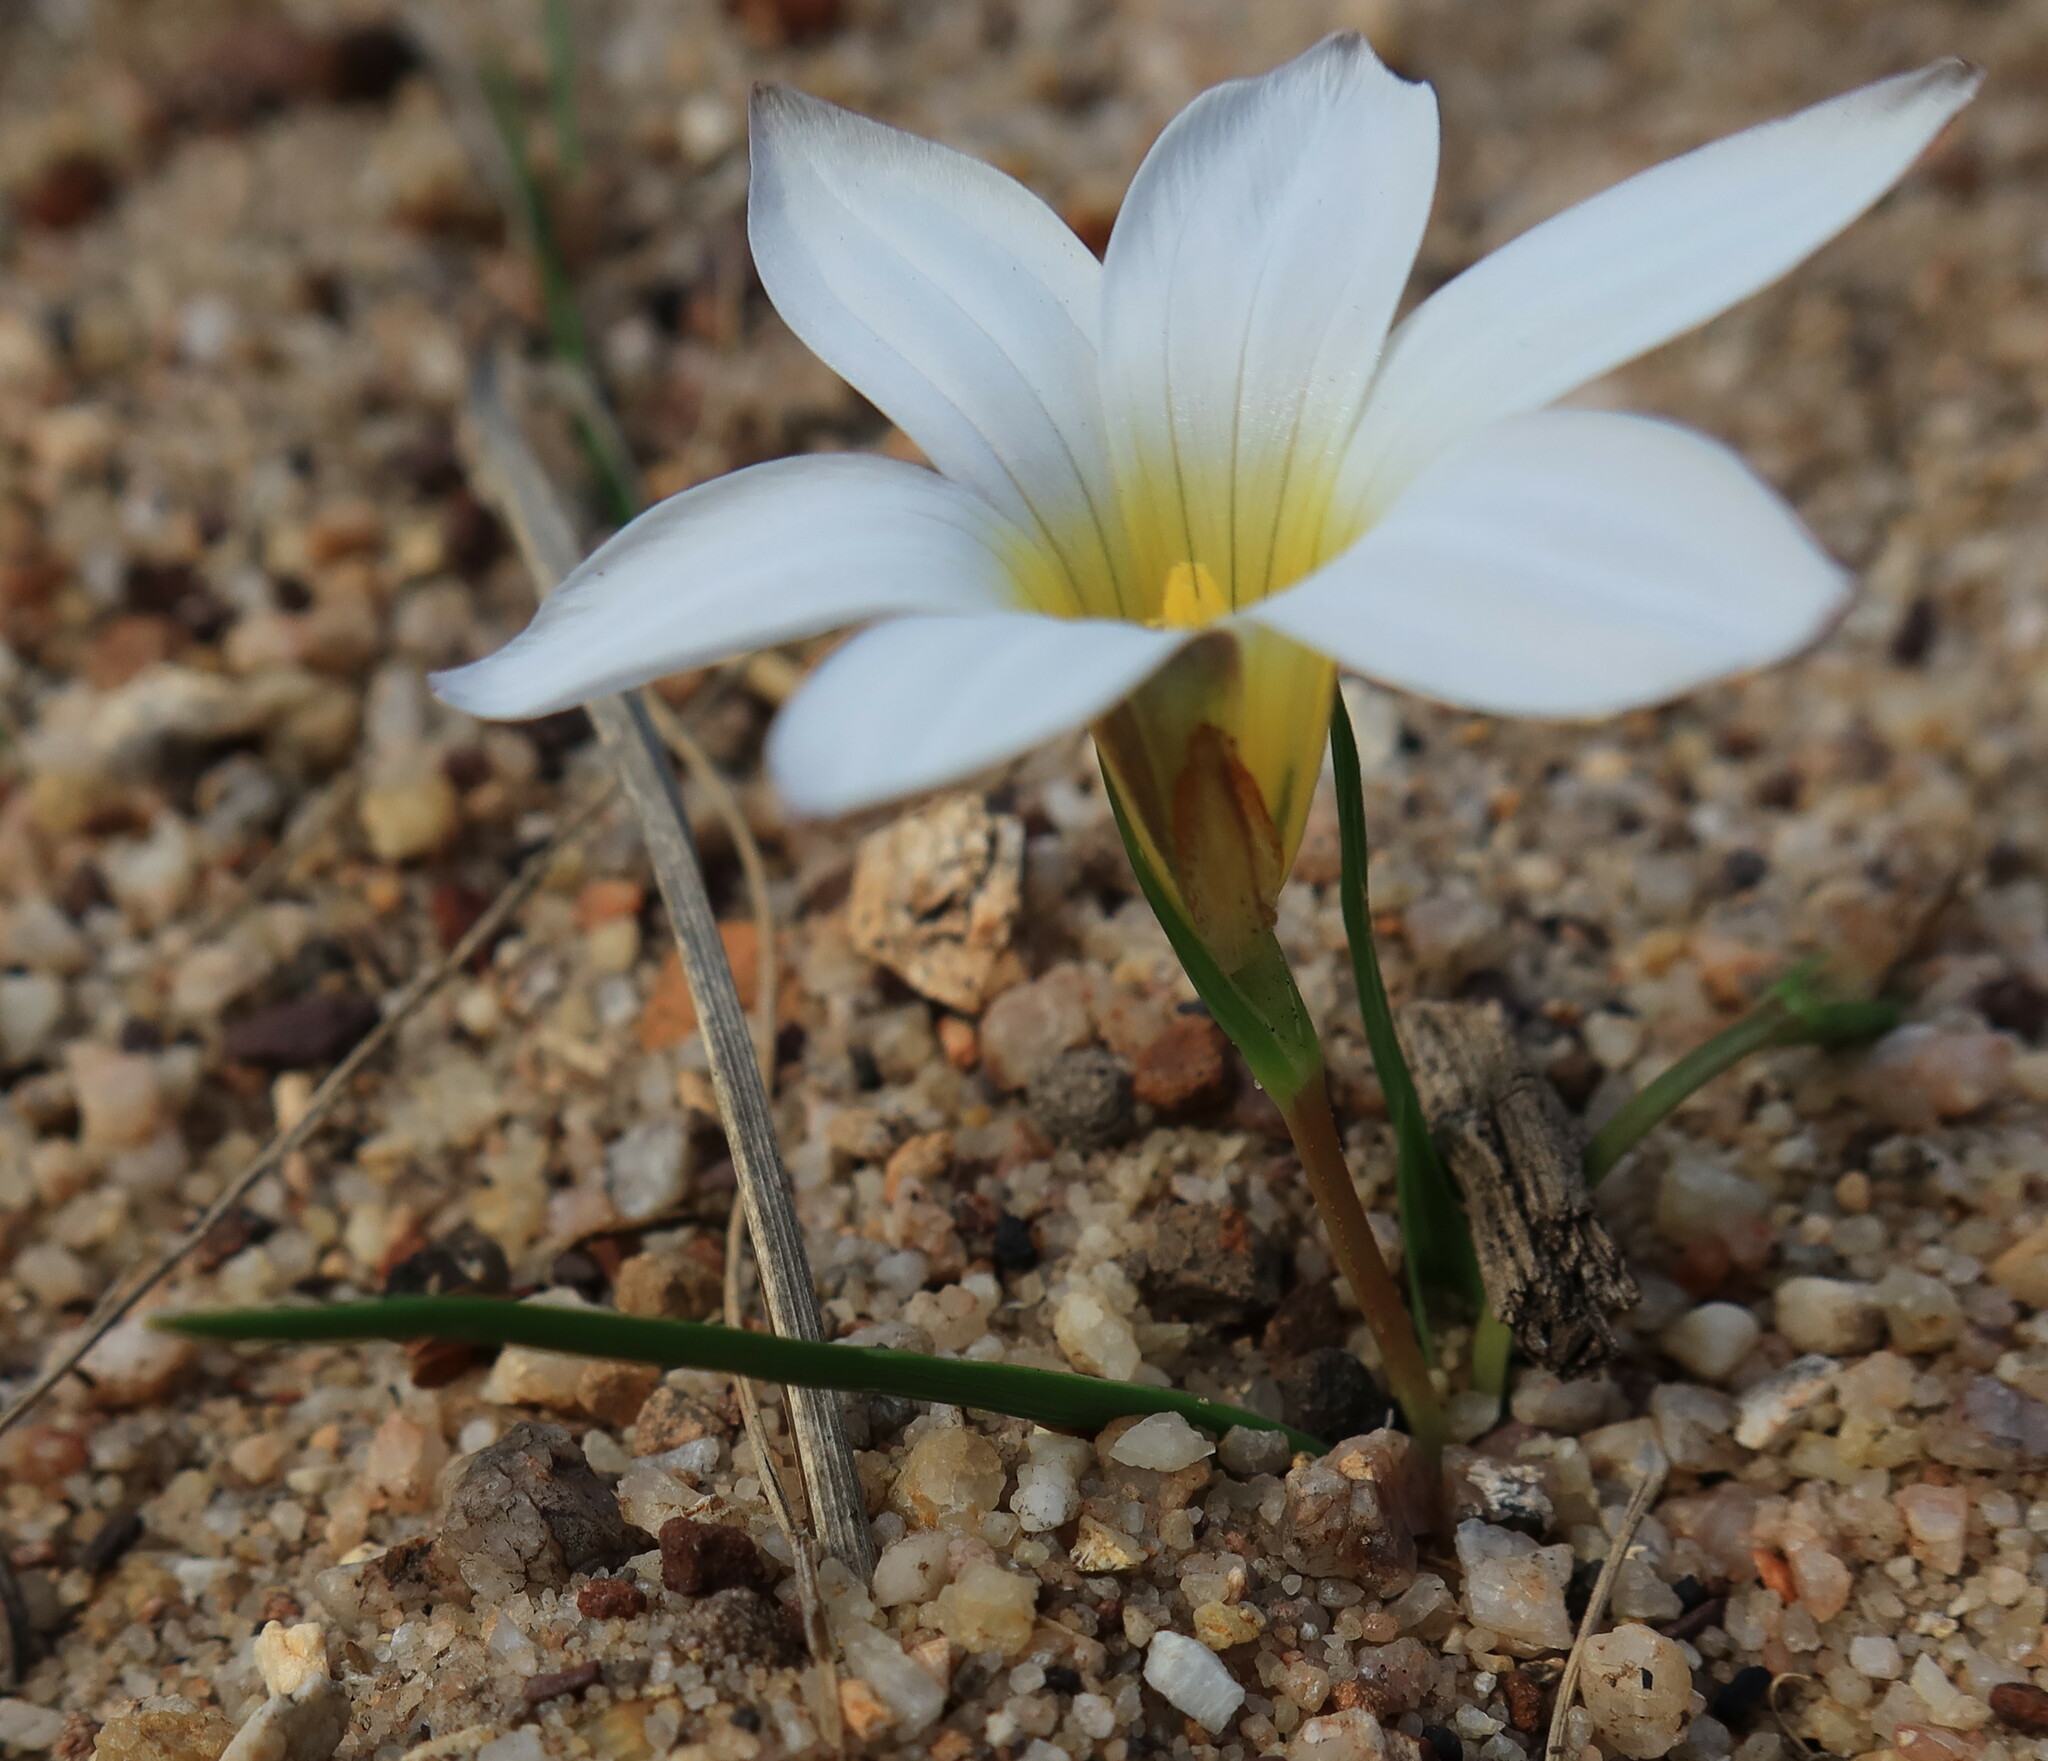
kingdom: Plantae
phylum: Tracheophyta
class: Liliopsida
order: Asparagales
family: Iridaceae
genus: Romulea
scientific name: Romulea flava
